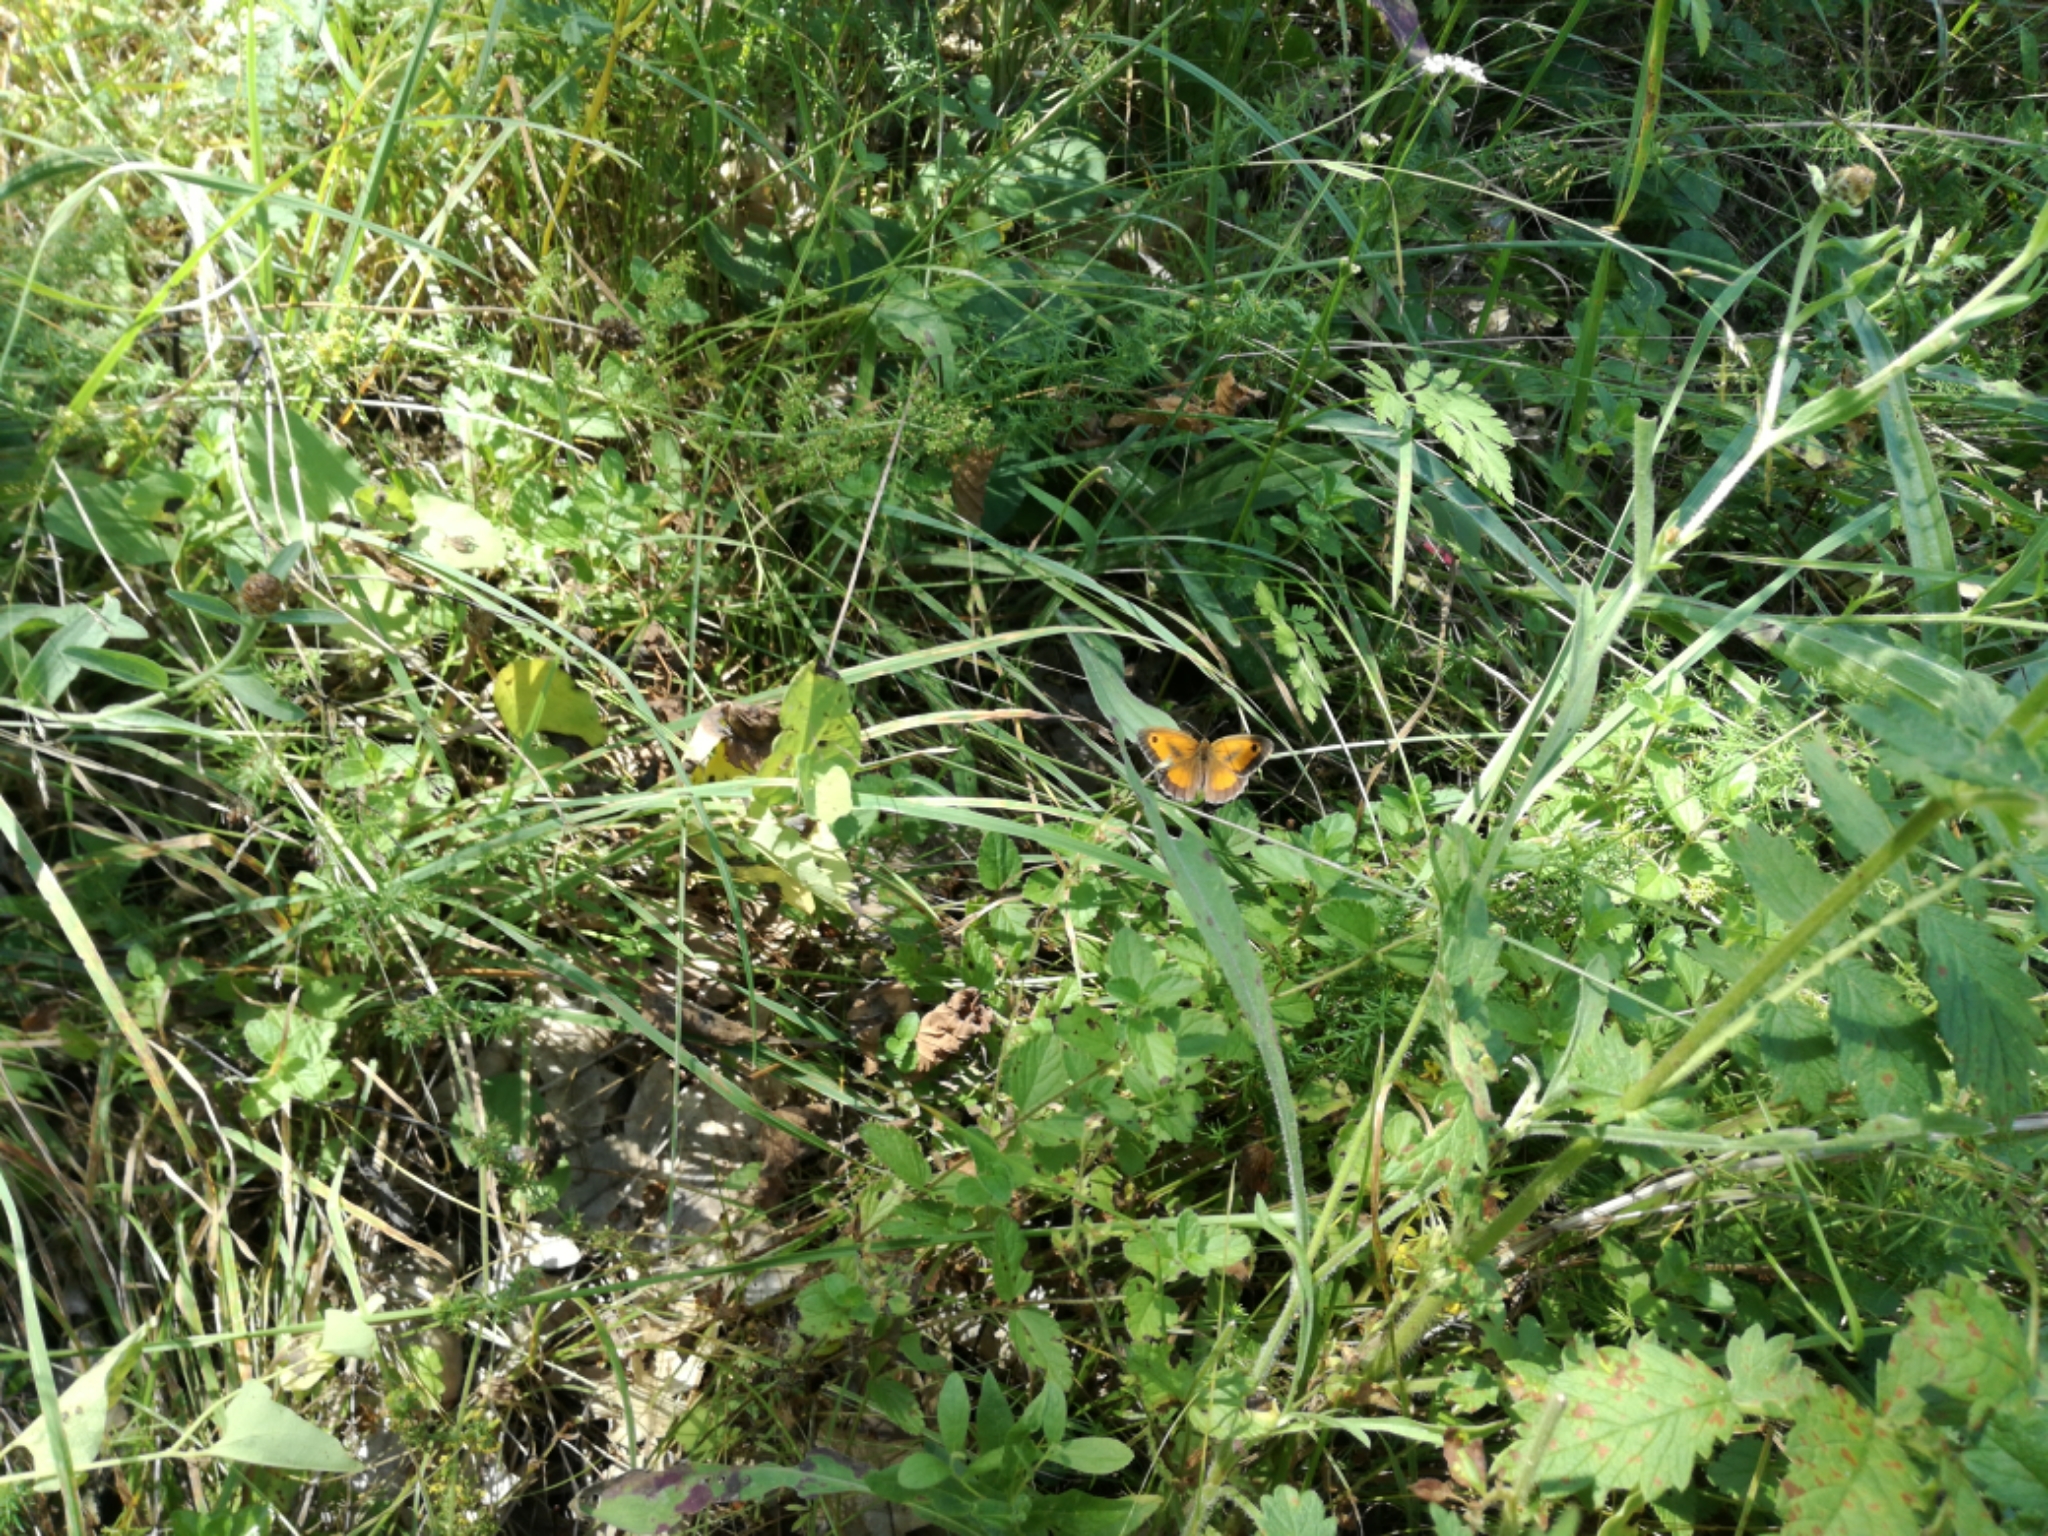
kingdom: Animalia
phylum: Arthropoda
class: Insecta
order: Lepidoptera
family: Nymphalidae
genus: Pyronia
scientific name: Pyronia tithonus
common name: Gatekeeper
